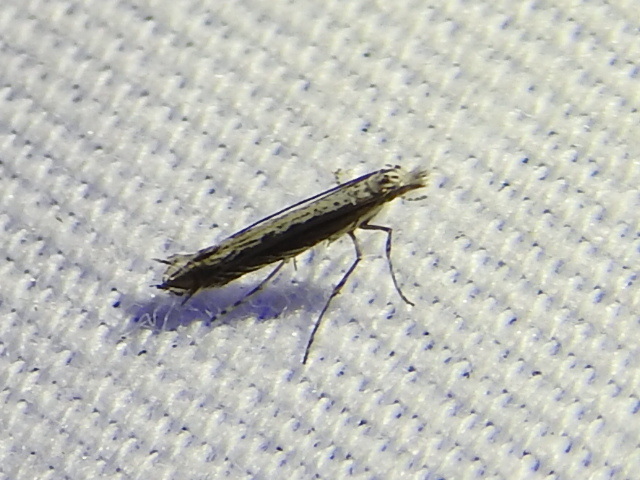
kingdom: Plantae
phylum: Rhodophyta
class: Florideophyceae
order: Gracilariales
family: Gracilariaceae
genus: Gracilaria
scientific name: Gracilaria
